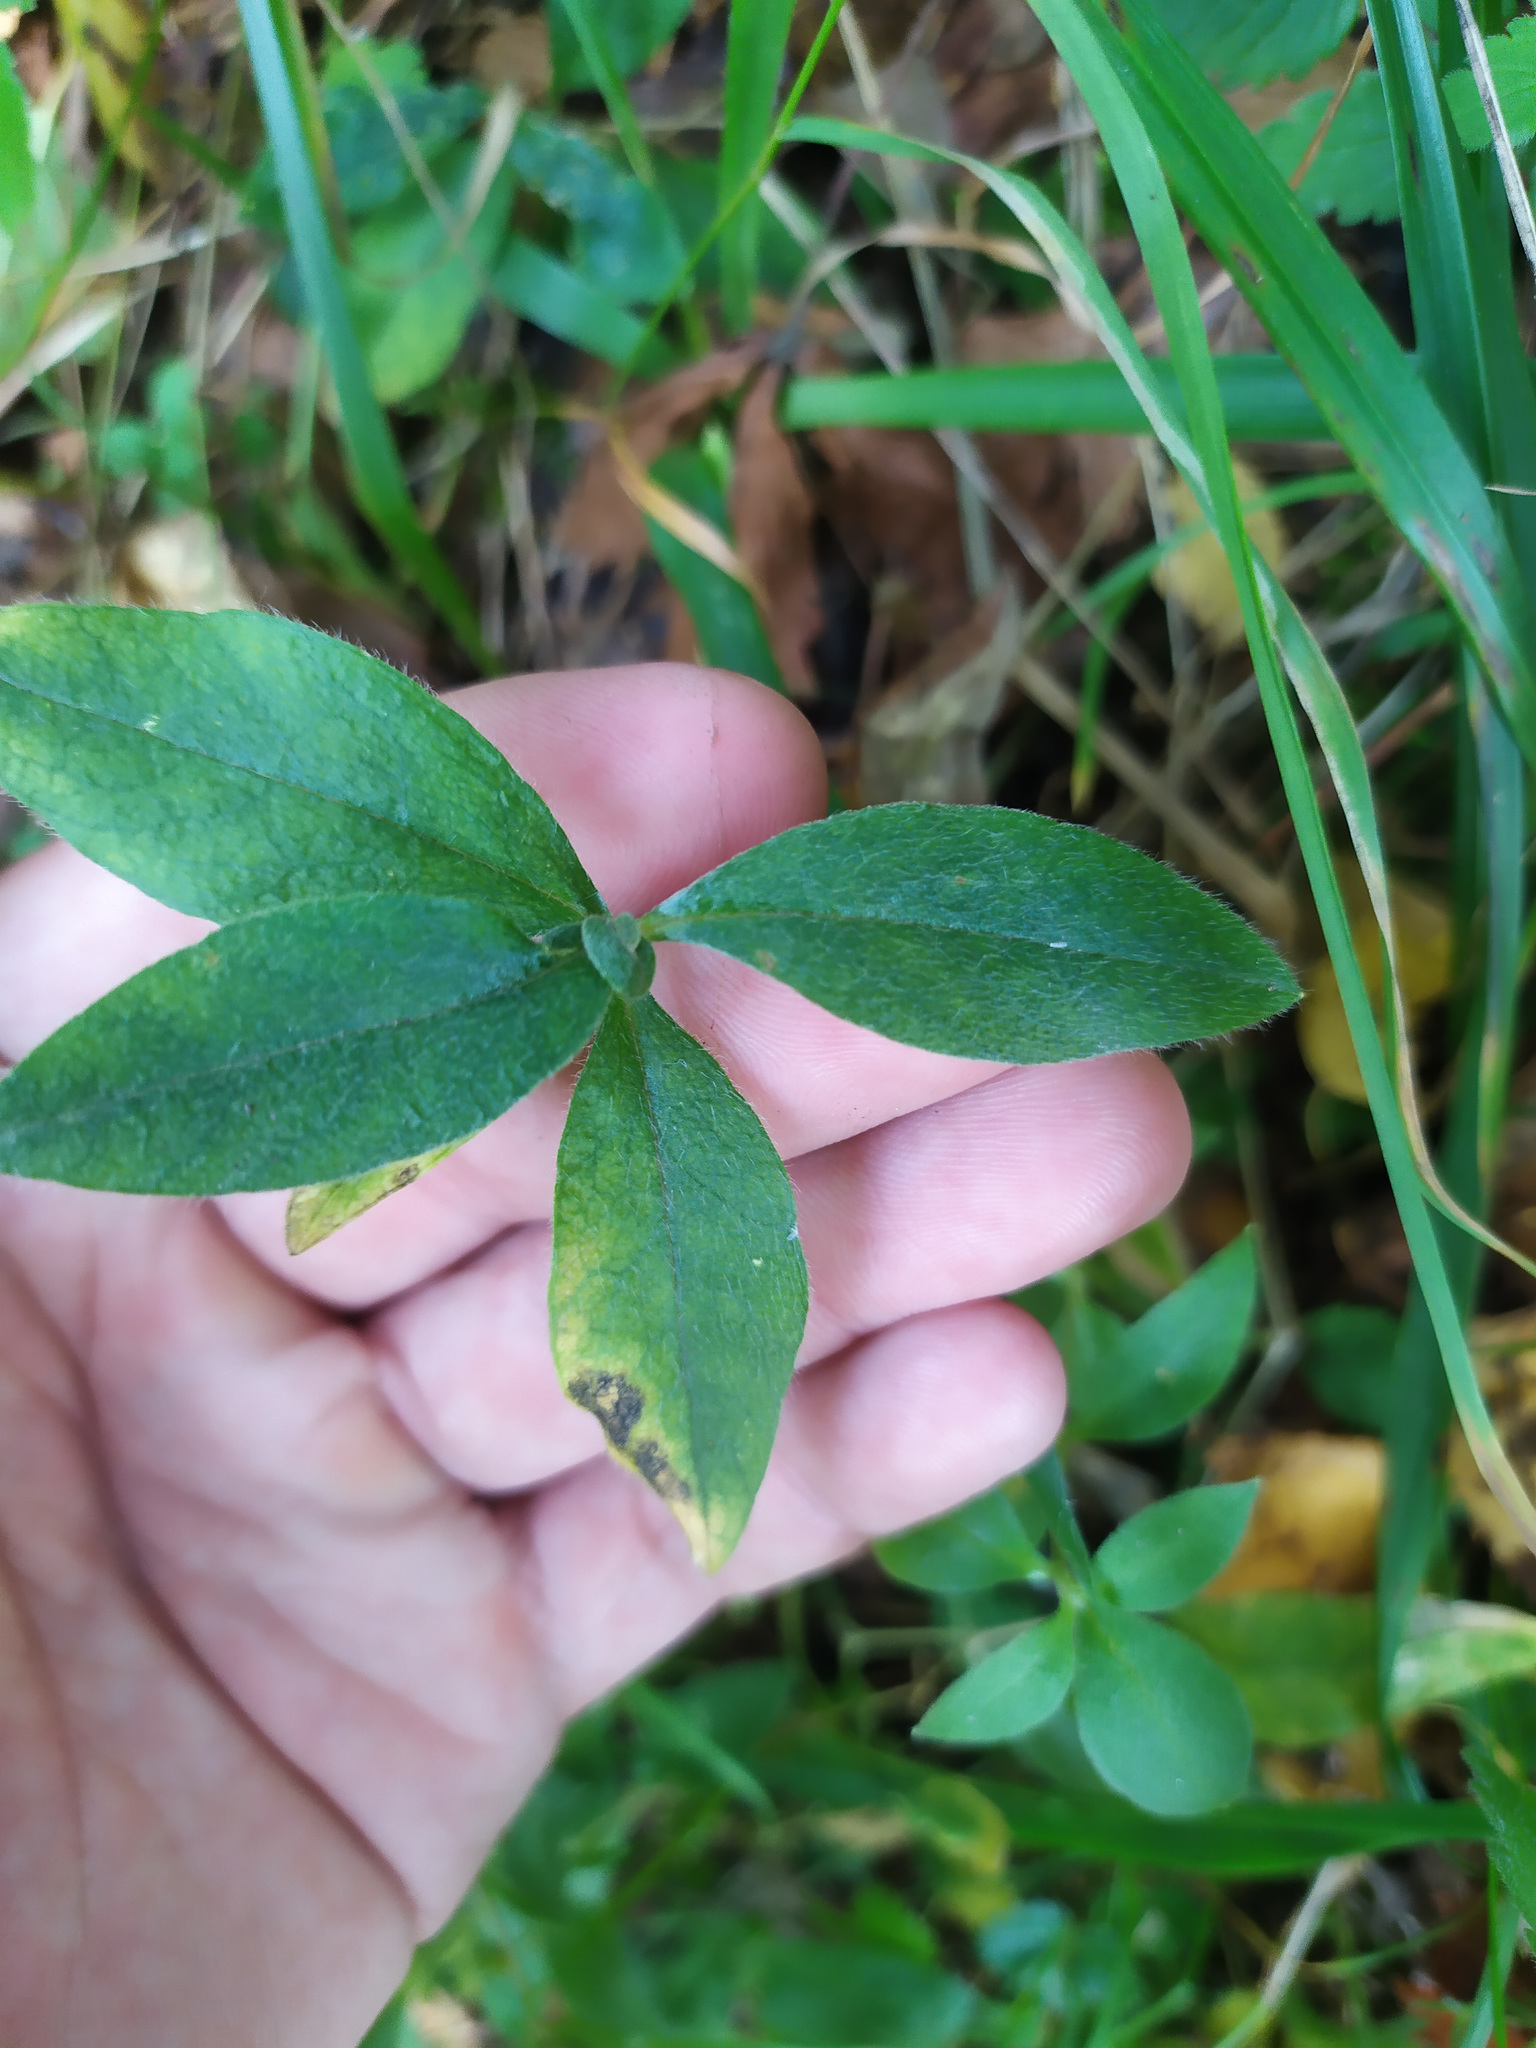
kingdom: Plantae
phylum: Tracheophyta
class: Magnoliopsida
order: Caryophyllales
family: Caryophyllaceae
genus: Cerastium
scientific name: Cerastium pauciflorum
